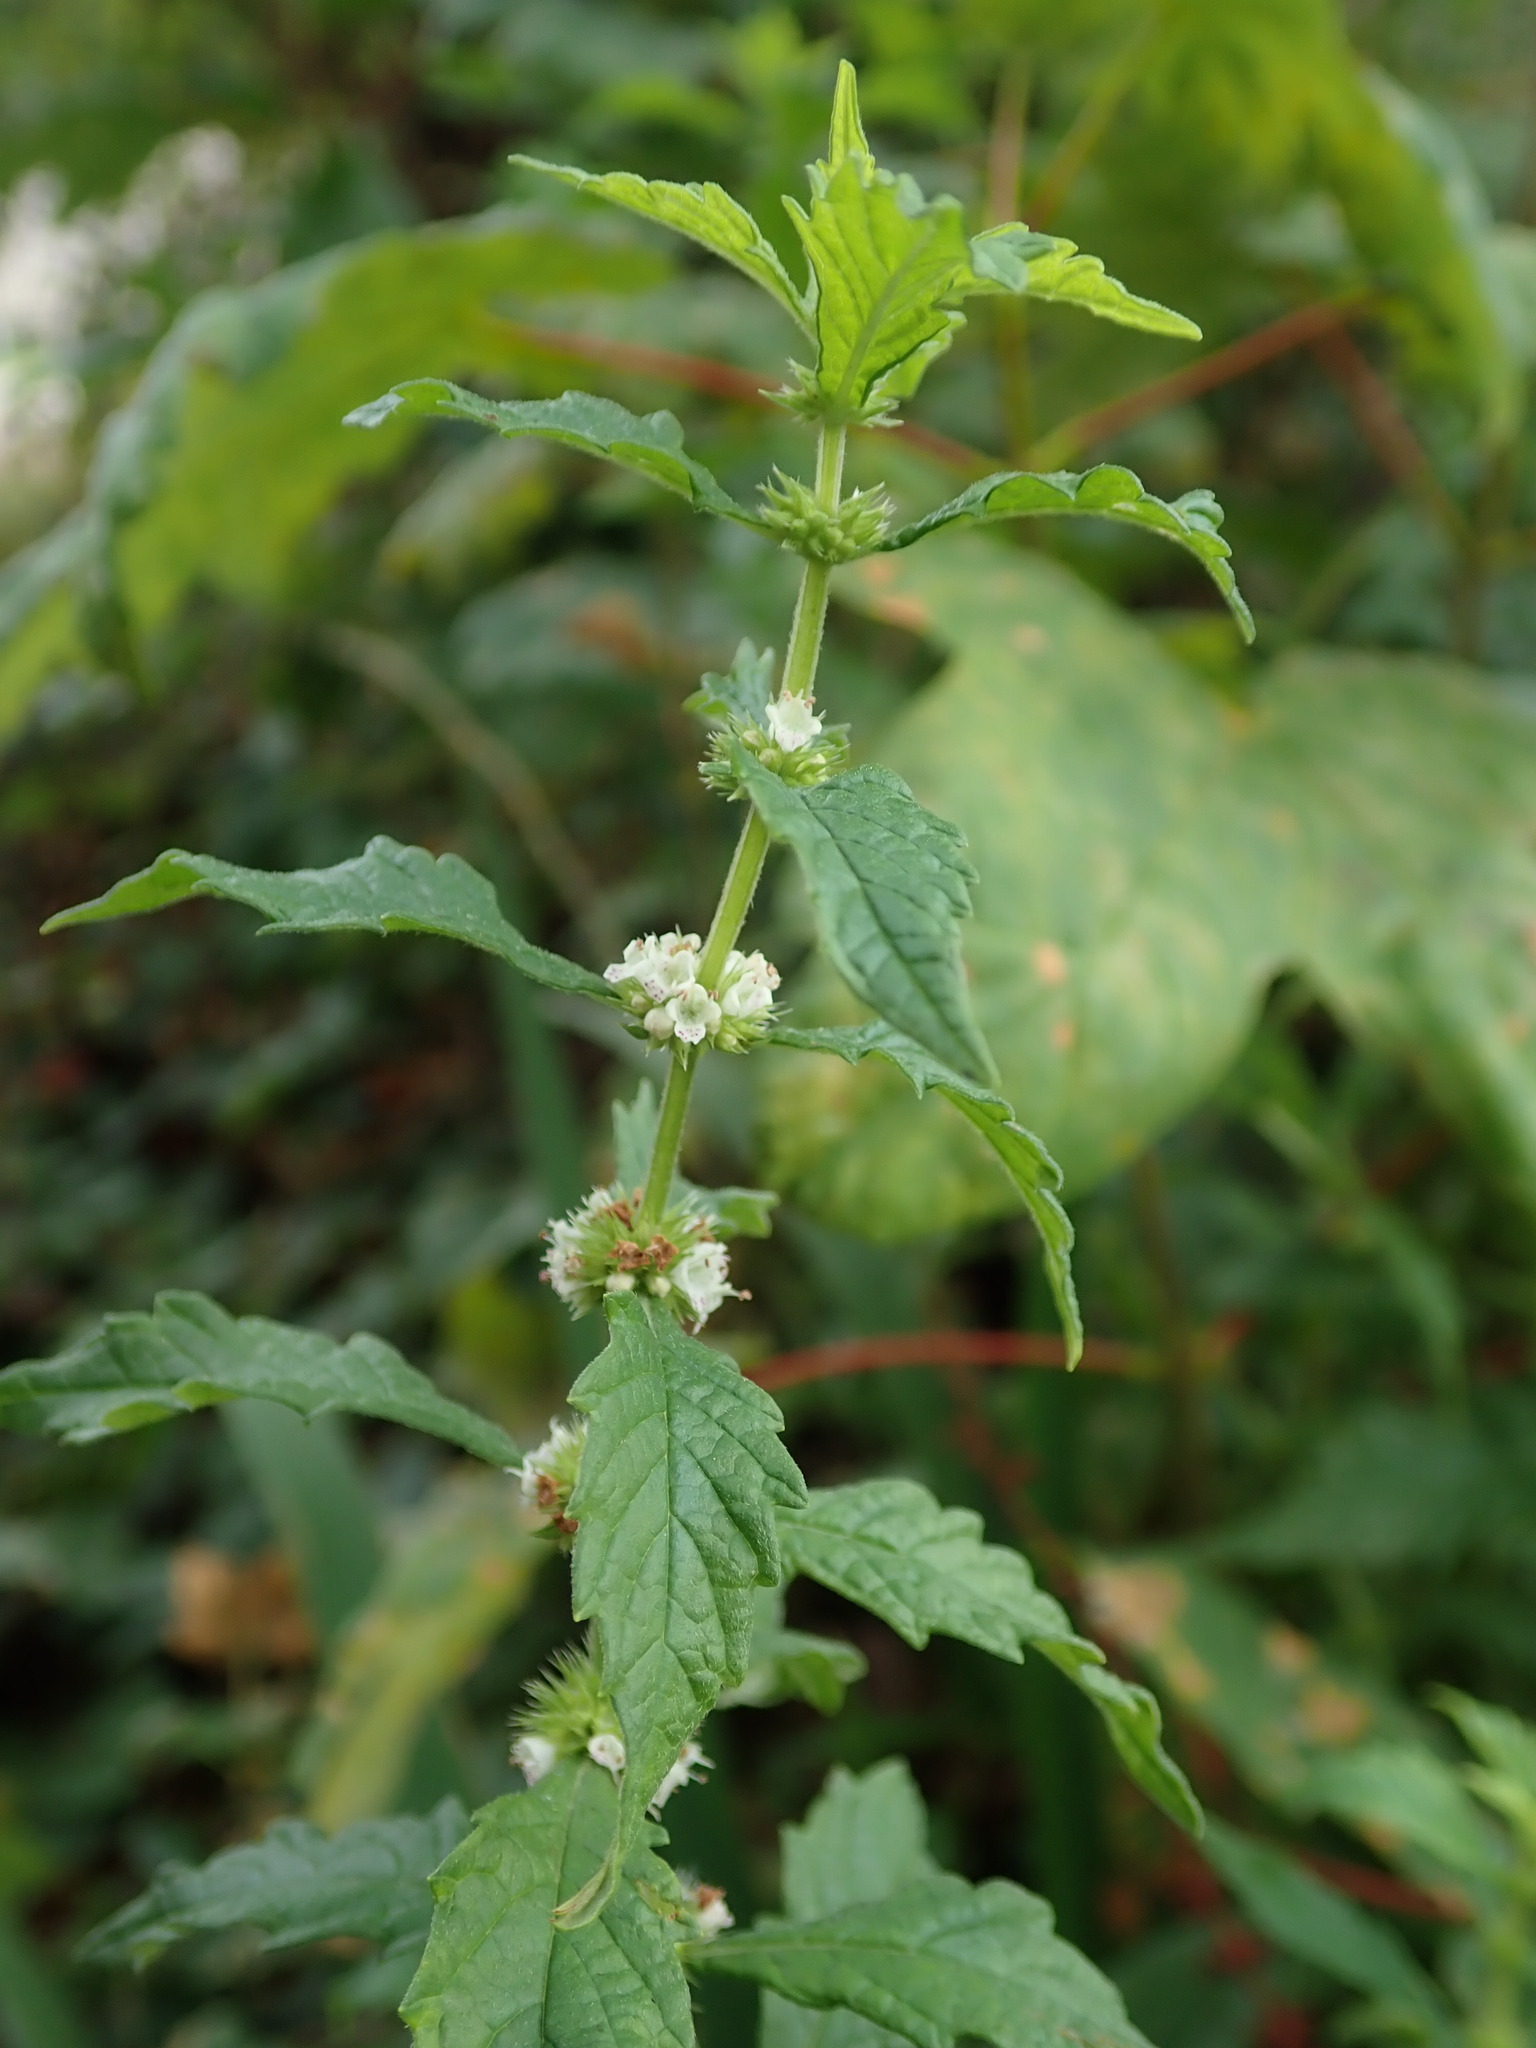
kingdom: Plantae
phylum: Tracheophyta
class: Magnoliopsida
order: Lamiales
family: Lamiaceae
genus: Lycopus
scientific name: Lycopus europaeus
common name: European bugleweed
